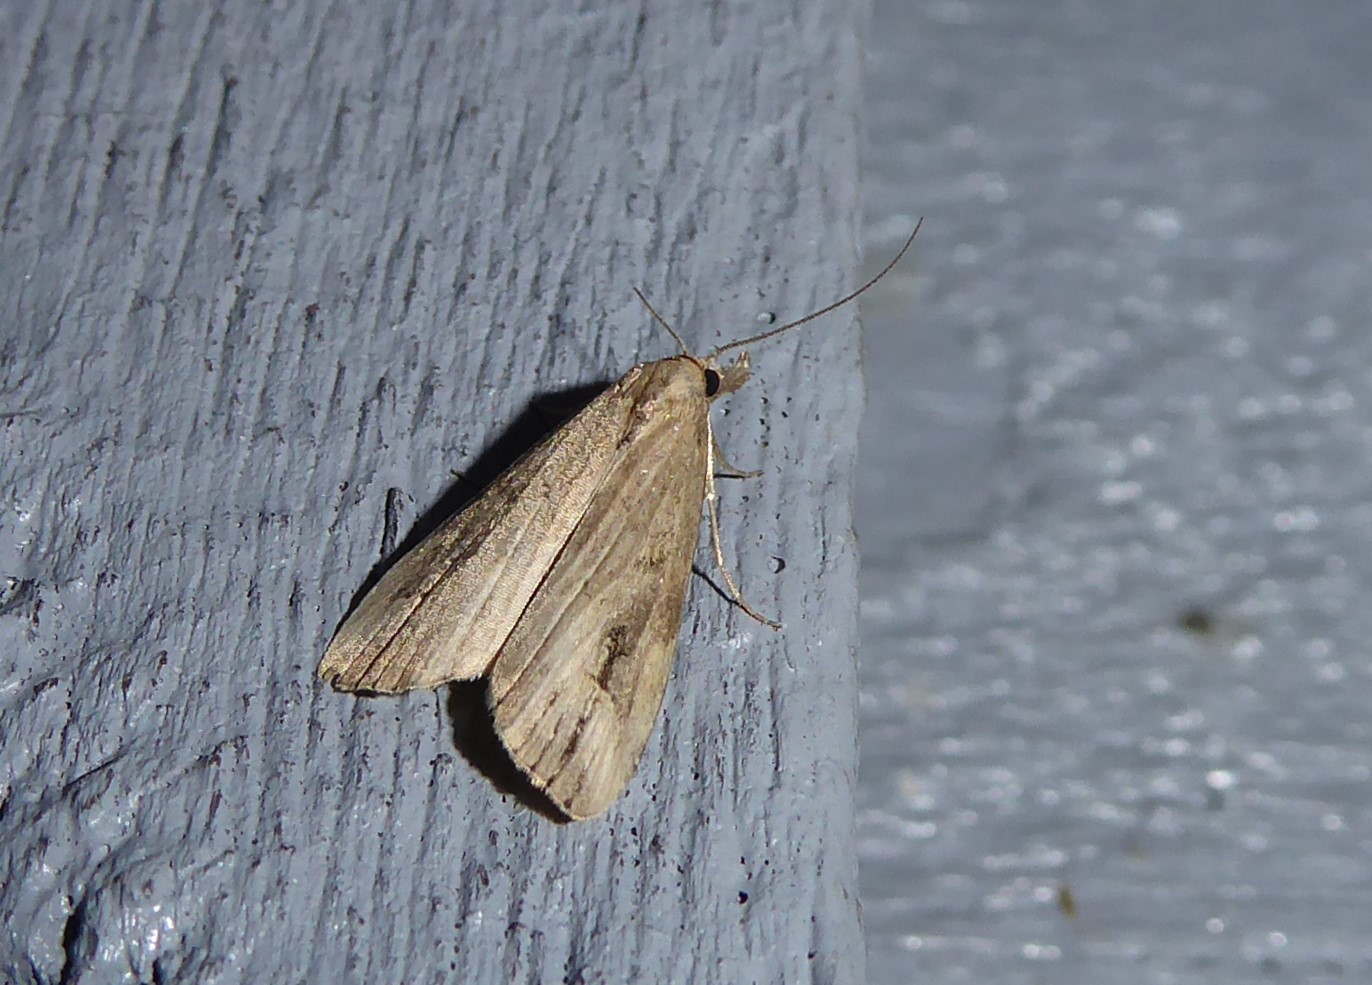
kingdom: Animalia
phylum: Arthropoda
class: Insecta
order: Lepidoptera
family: Erebidae
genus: Schrankia
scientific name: Schrankia costaestrigalis
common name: Pinion-streaked snout
